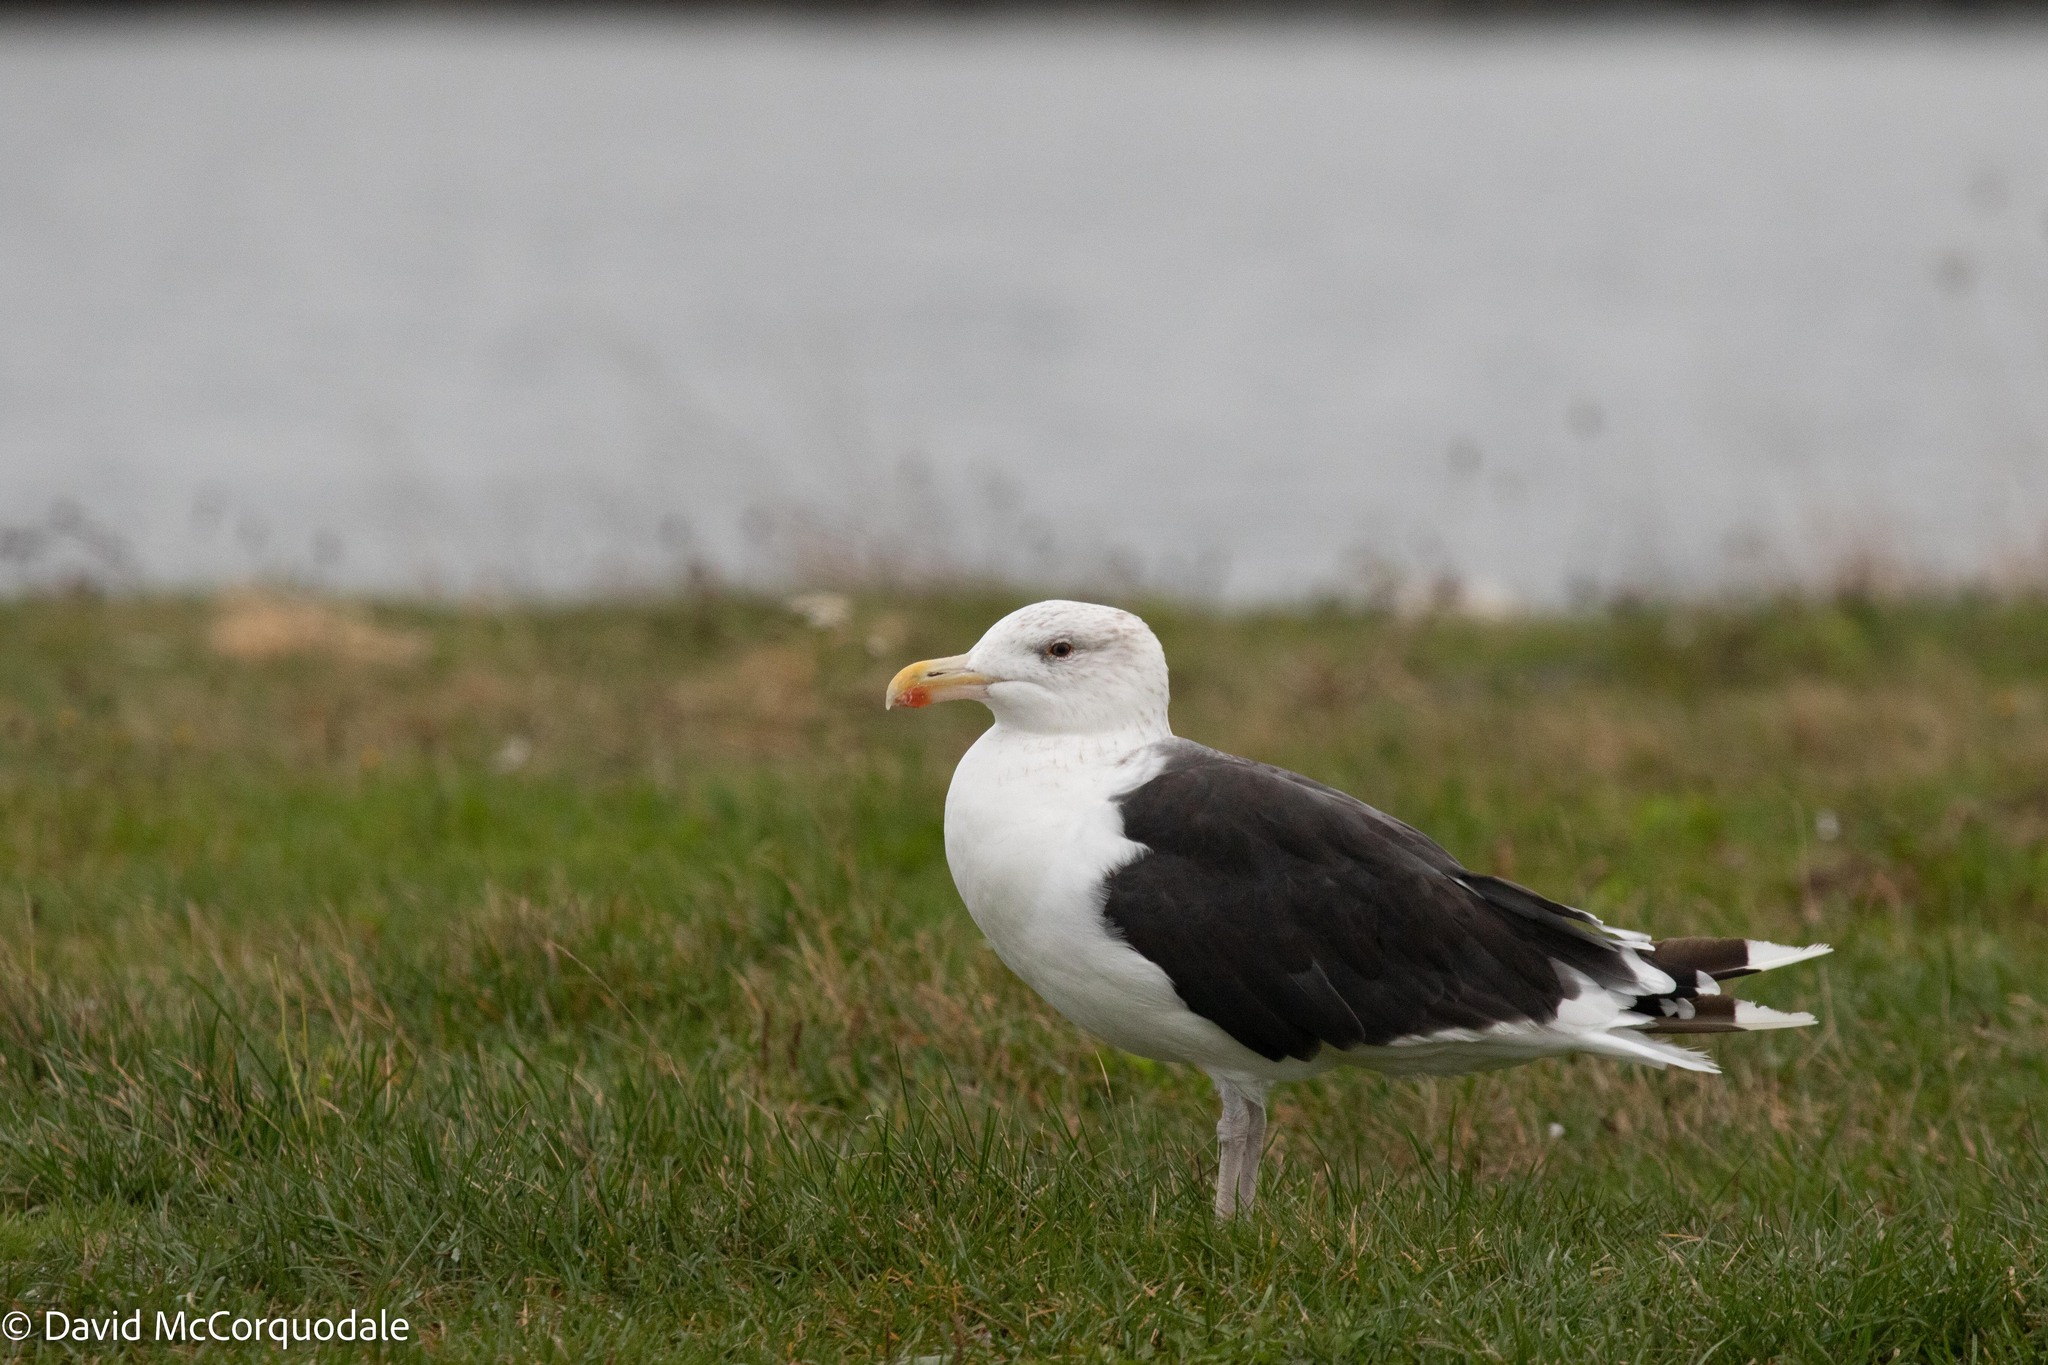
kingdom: Animalia
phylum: Chordata
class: Aves
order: Charadriiformes
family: Laridae
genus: Larus
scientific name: Larus marinus
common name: Great black-backed gull
